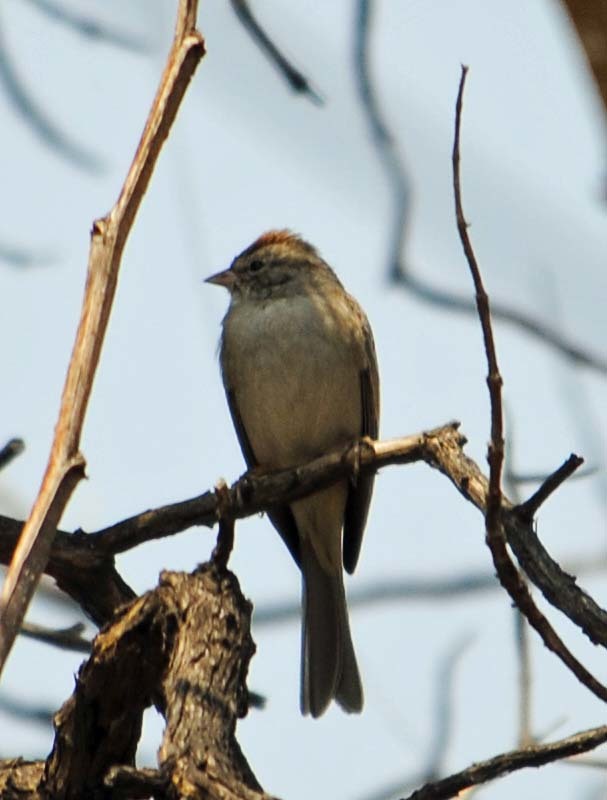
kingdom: Animalia
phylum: Chordata
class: Aves
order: Passeriformes
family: Passerellidae
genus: Spizella
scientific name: Spizella passerina
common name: Chipping sparrow
